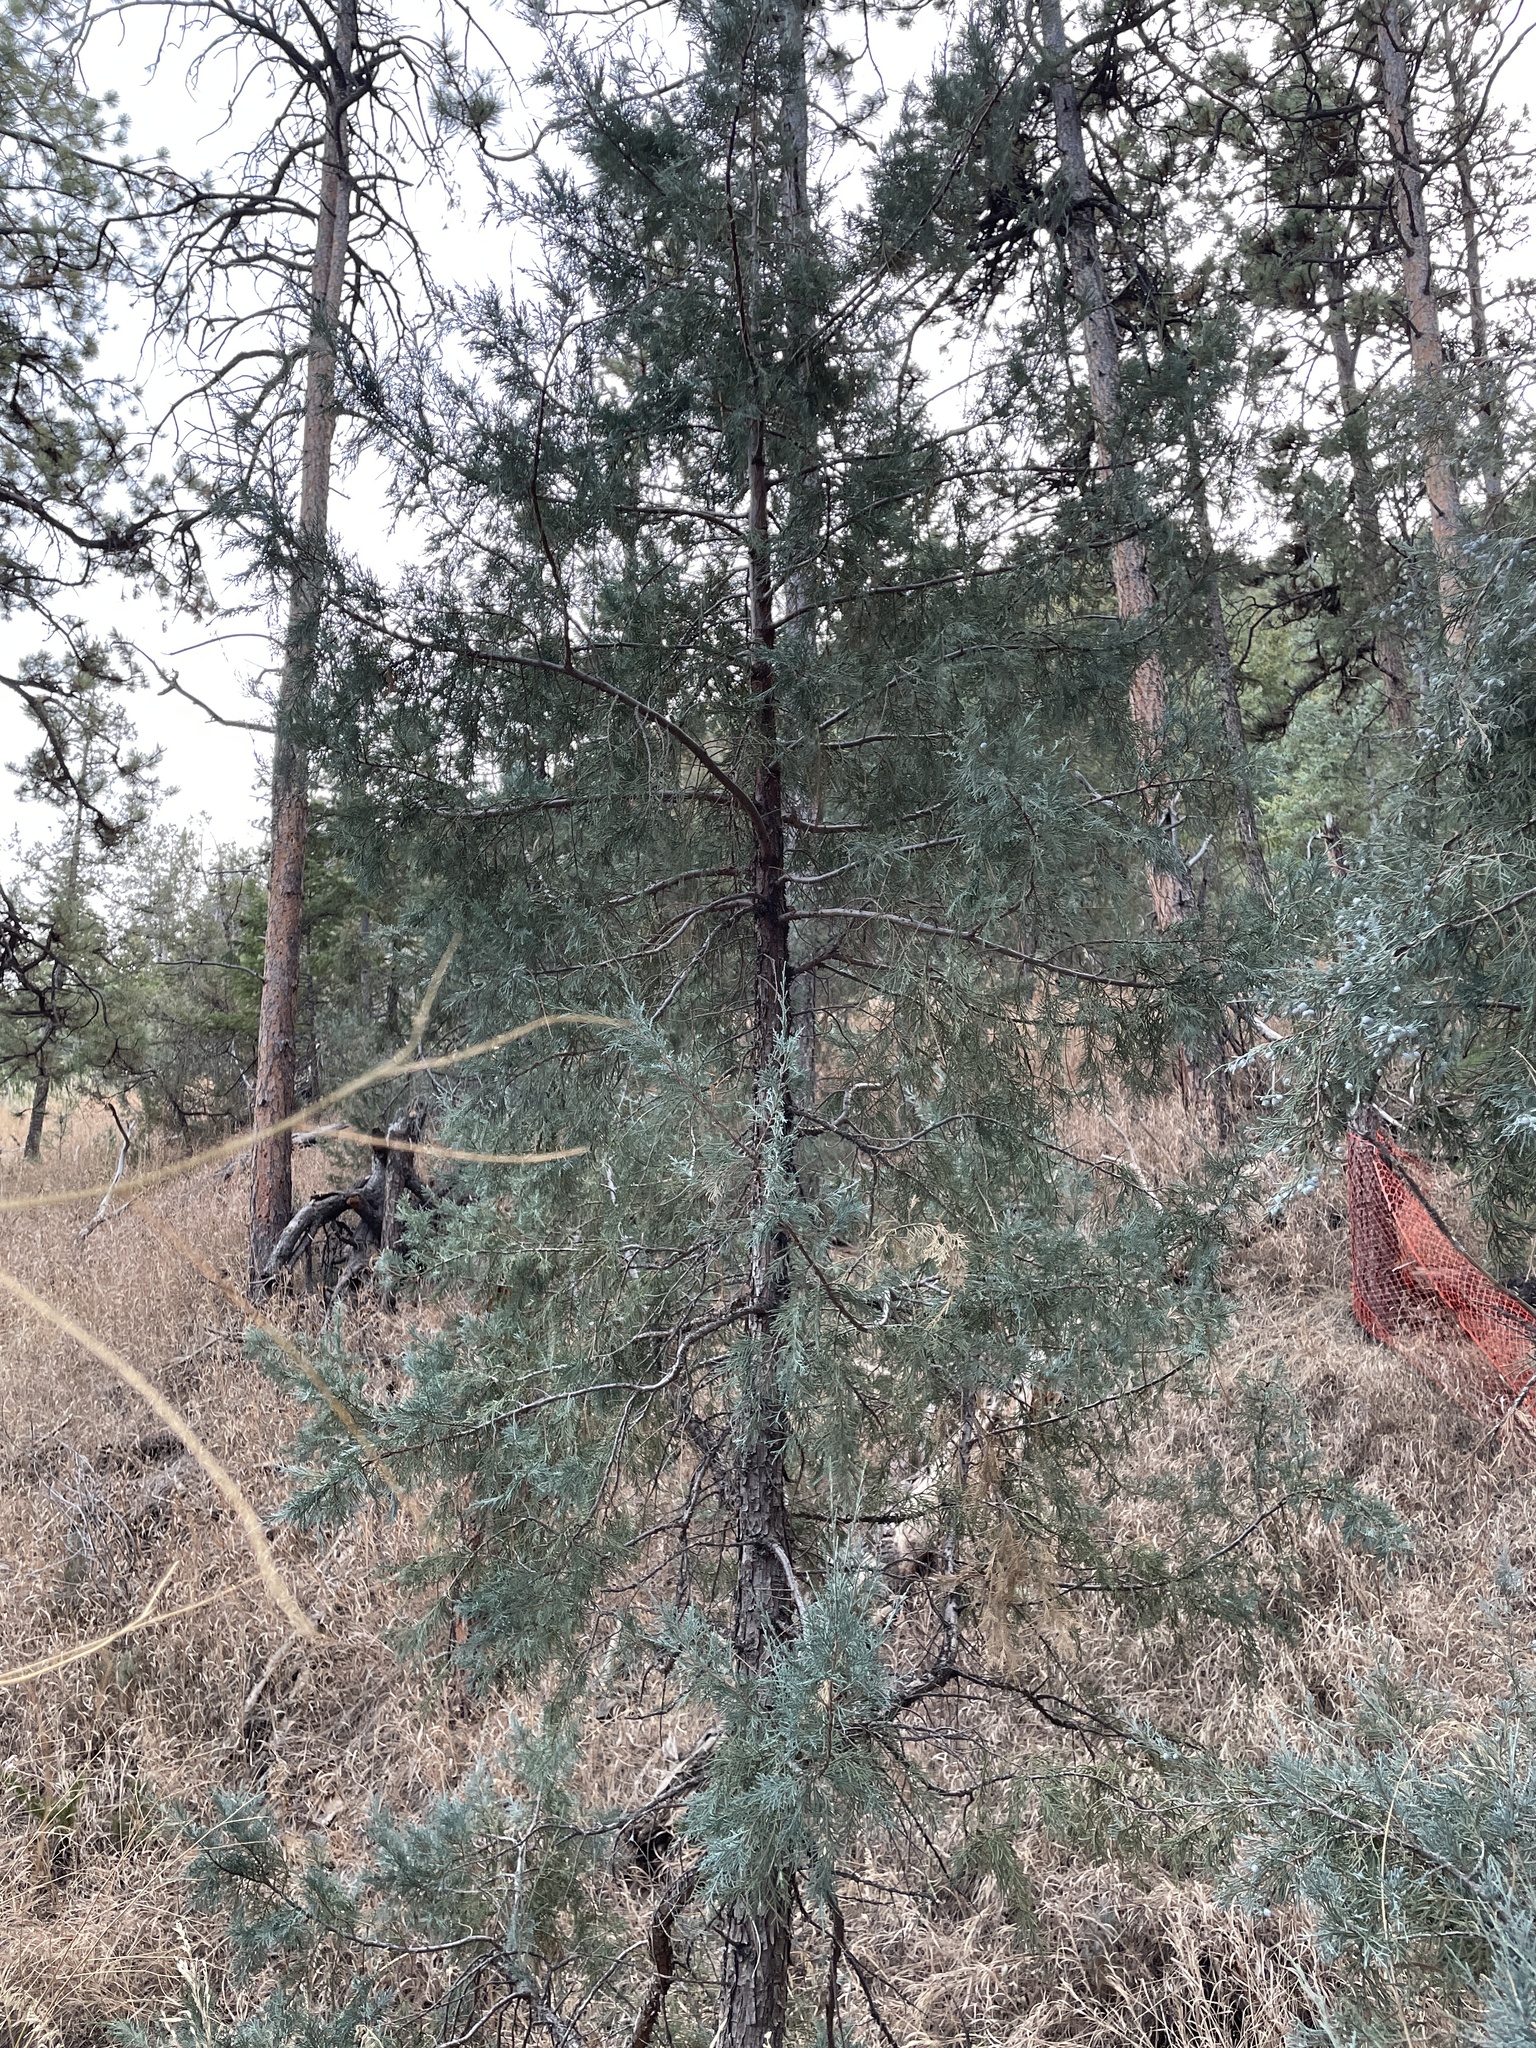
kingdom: Plantae
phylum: Tracheophyta
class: Pinopsida
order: Pinales
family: Cupressaceae
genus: Juniperus
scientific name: Juniperus scopulorum
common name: Rocky mountain juniper
